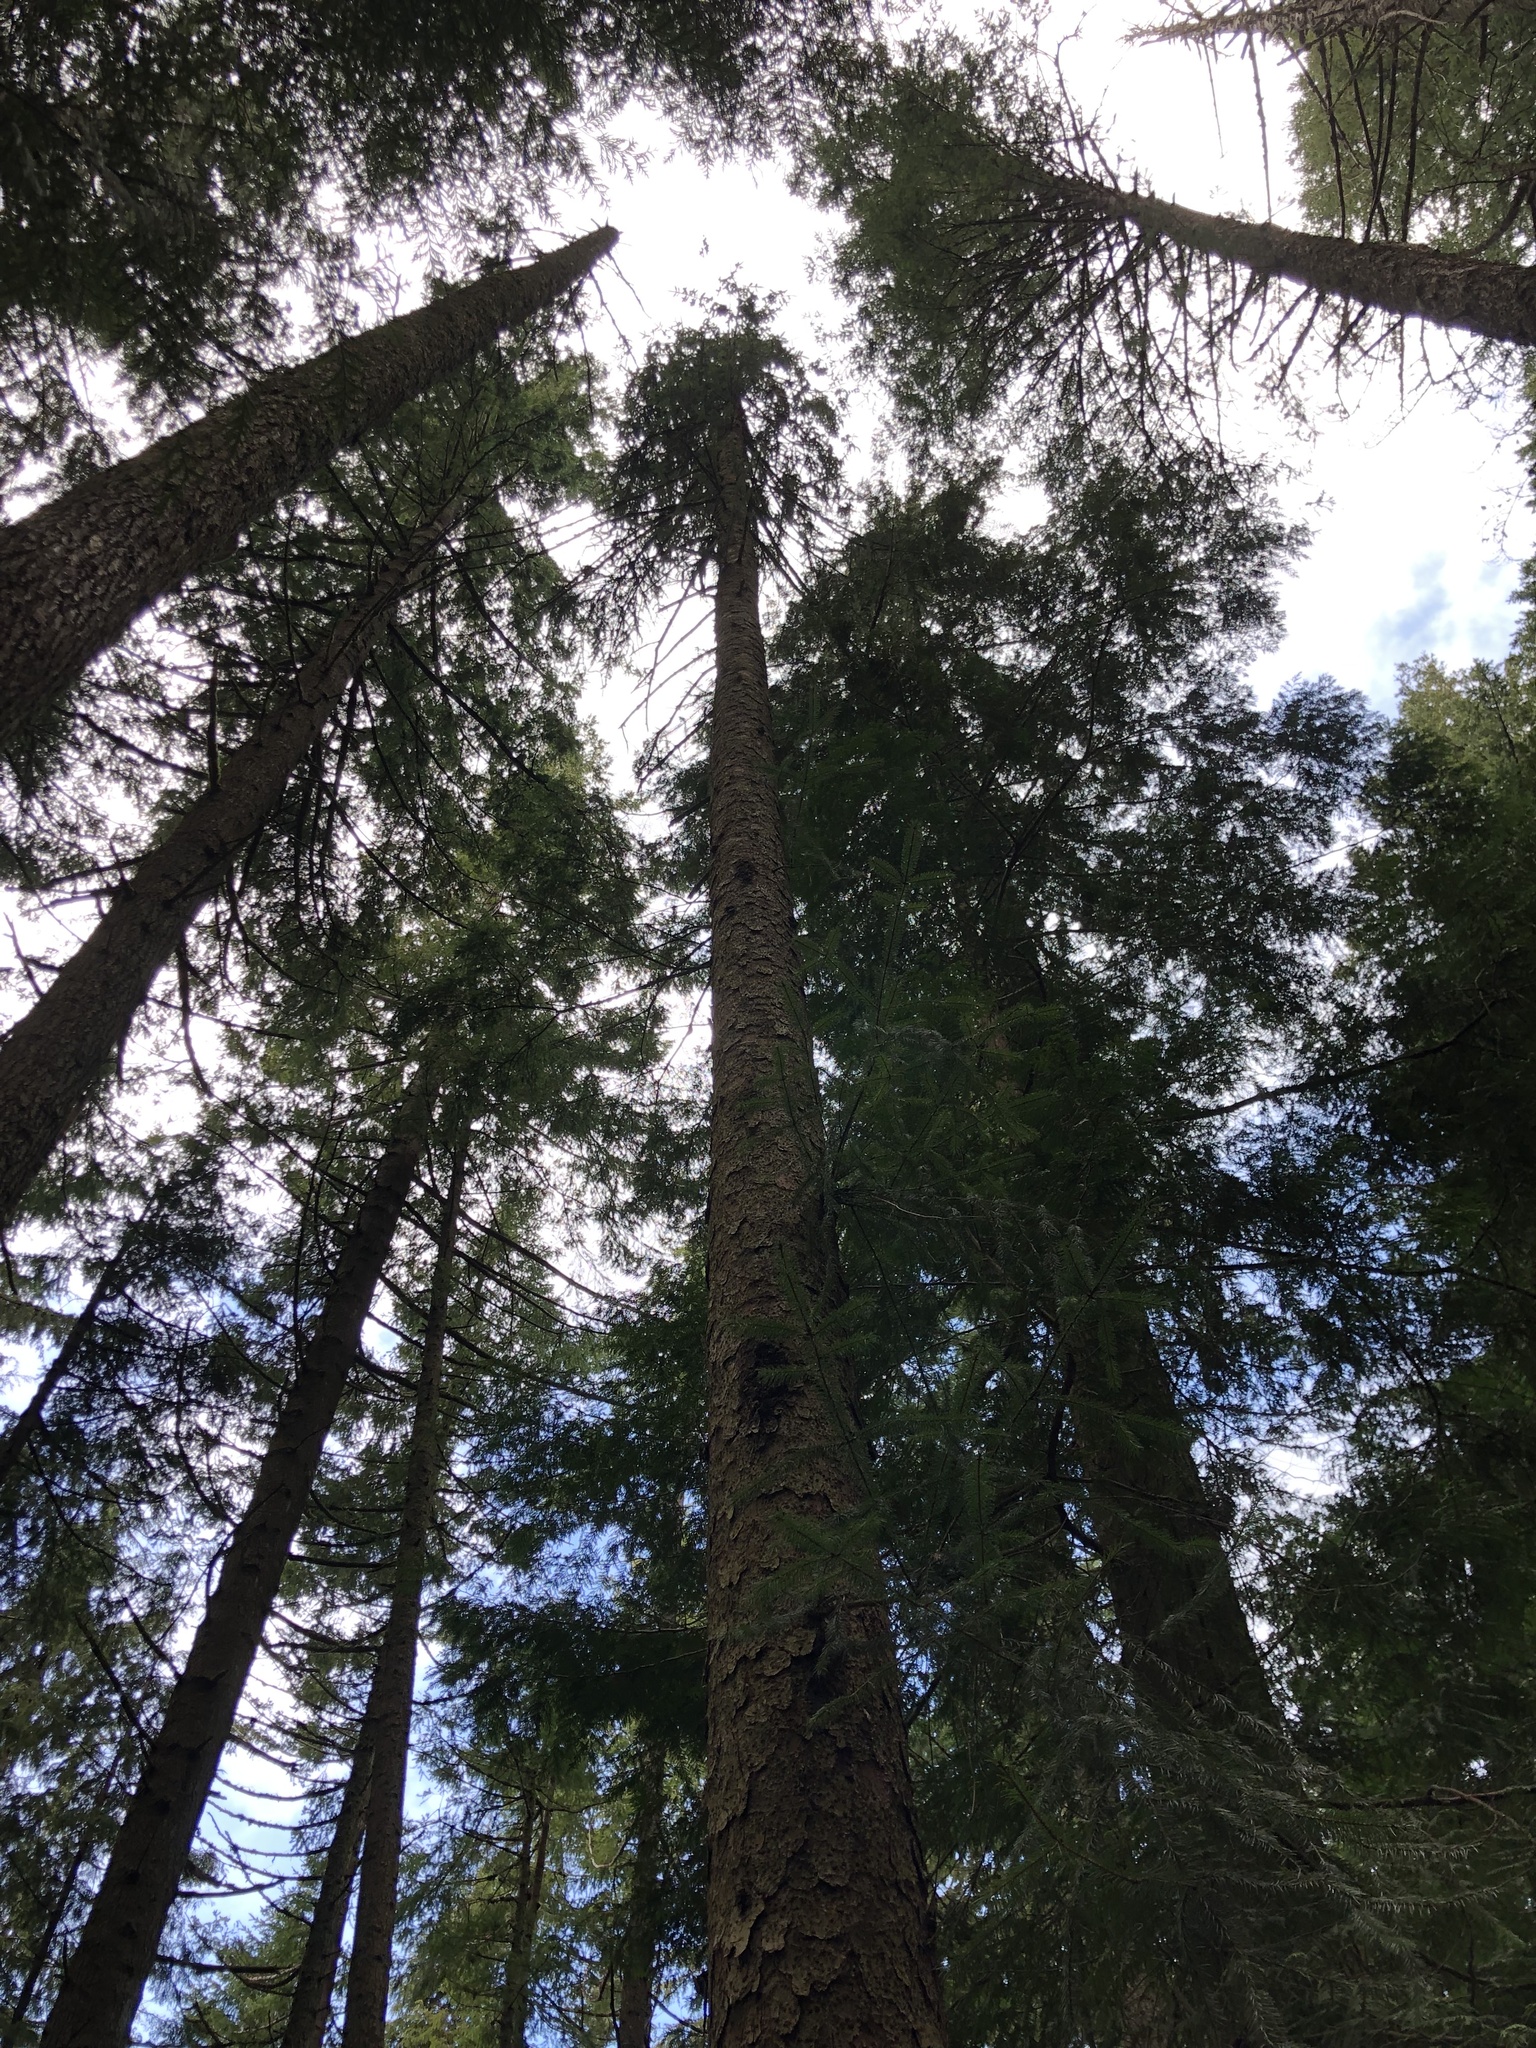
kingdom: Plantae
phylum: Tracheophyta
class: Pinopsida
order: Pinales
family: Pinaceae
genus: Picea
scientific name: Picea sitchensis
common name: Sitka spruce
